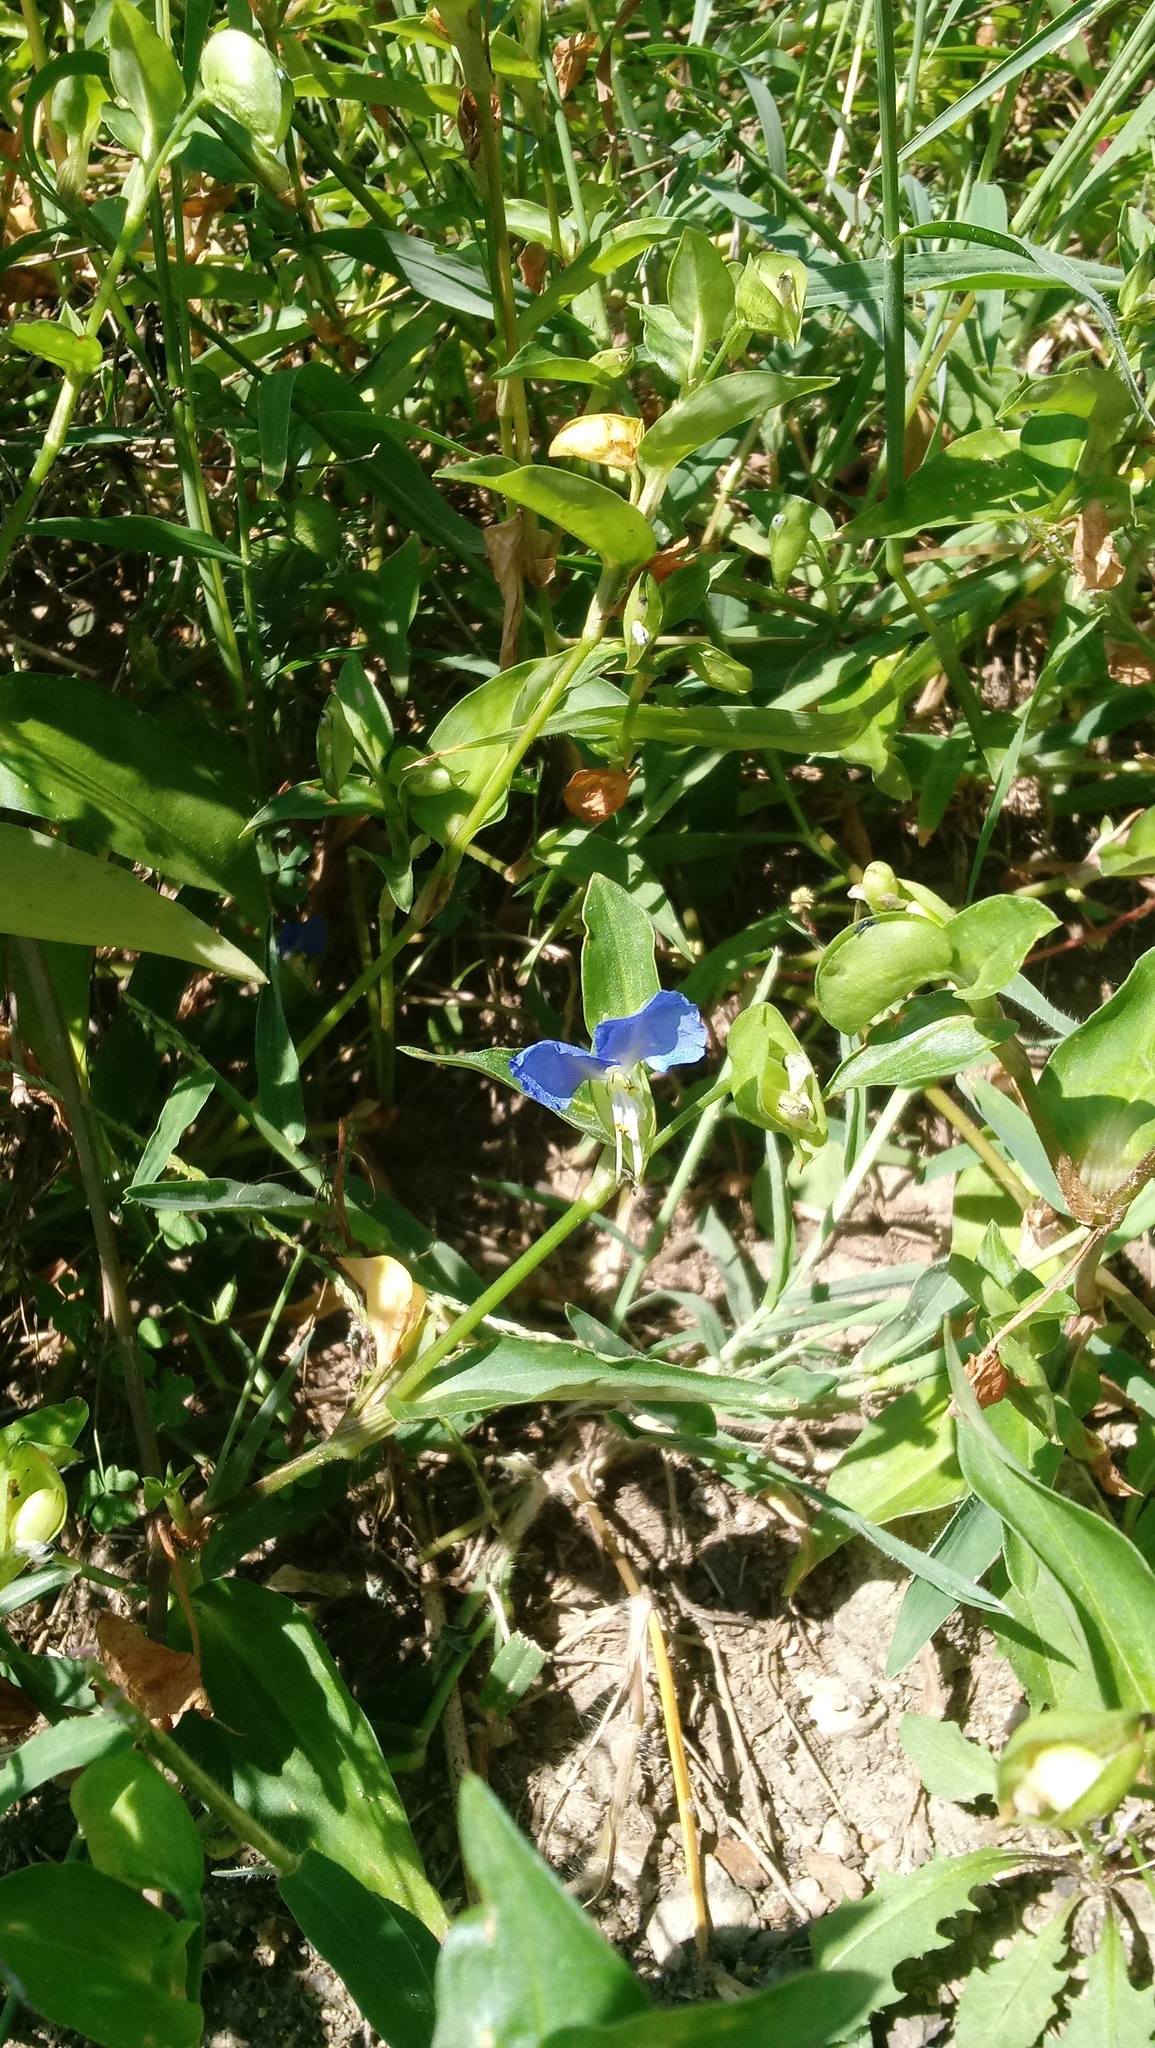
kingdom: Plantae
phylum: Tracheophyta
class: Liliopsida
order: Commelinales
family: Commelinaceae
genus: Commelina
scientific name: Commelina communis
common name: Asiatic dayflower
